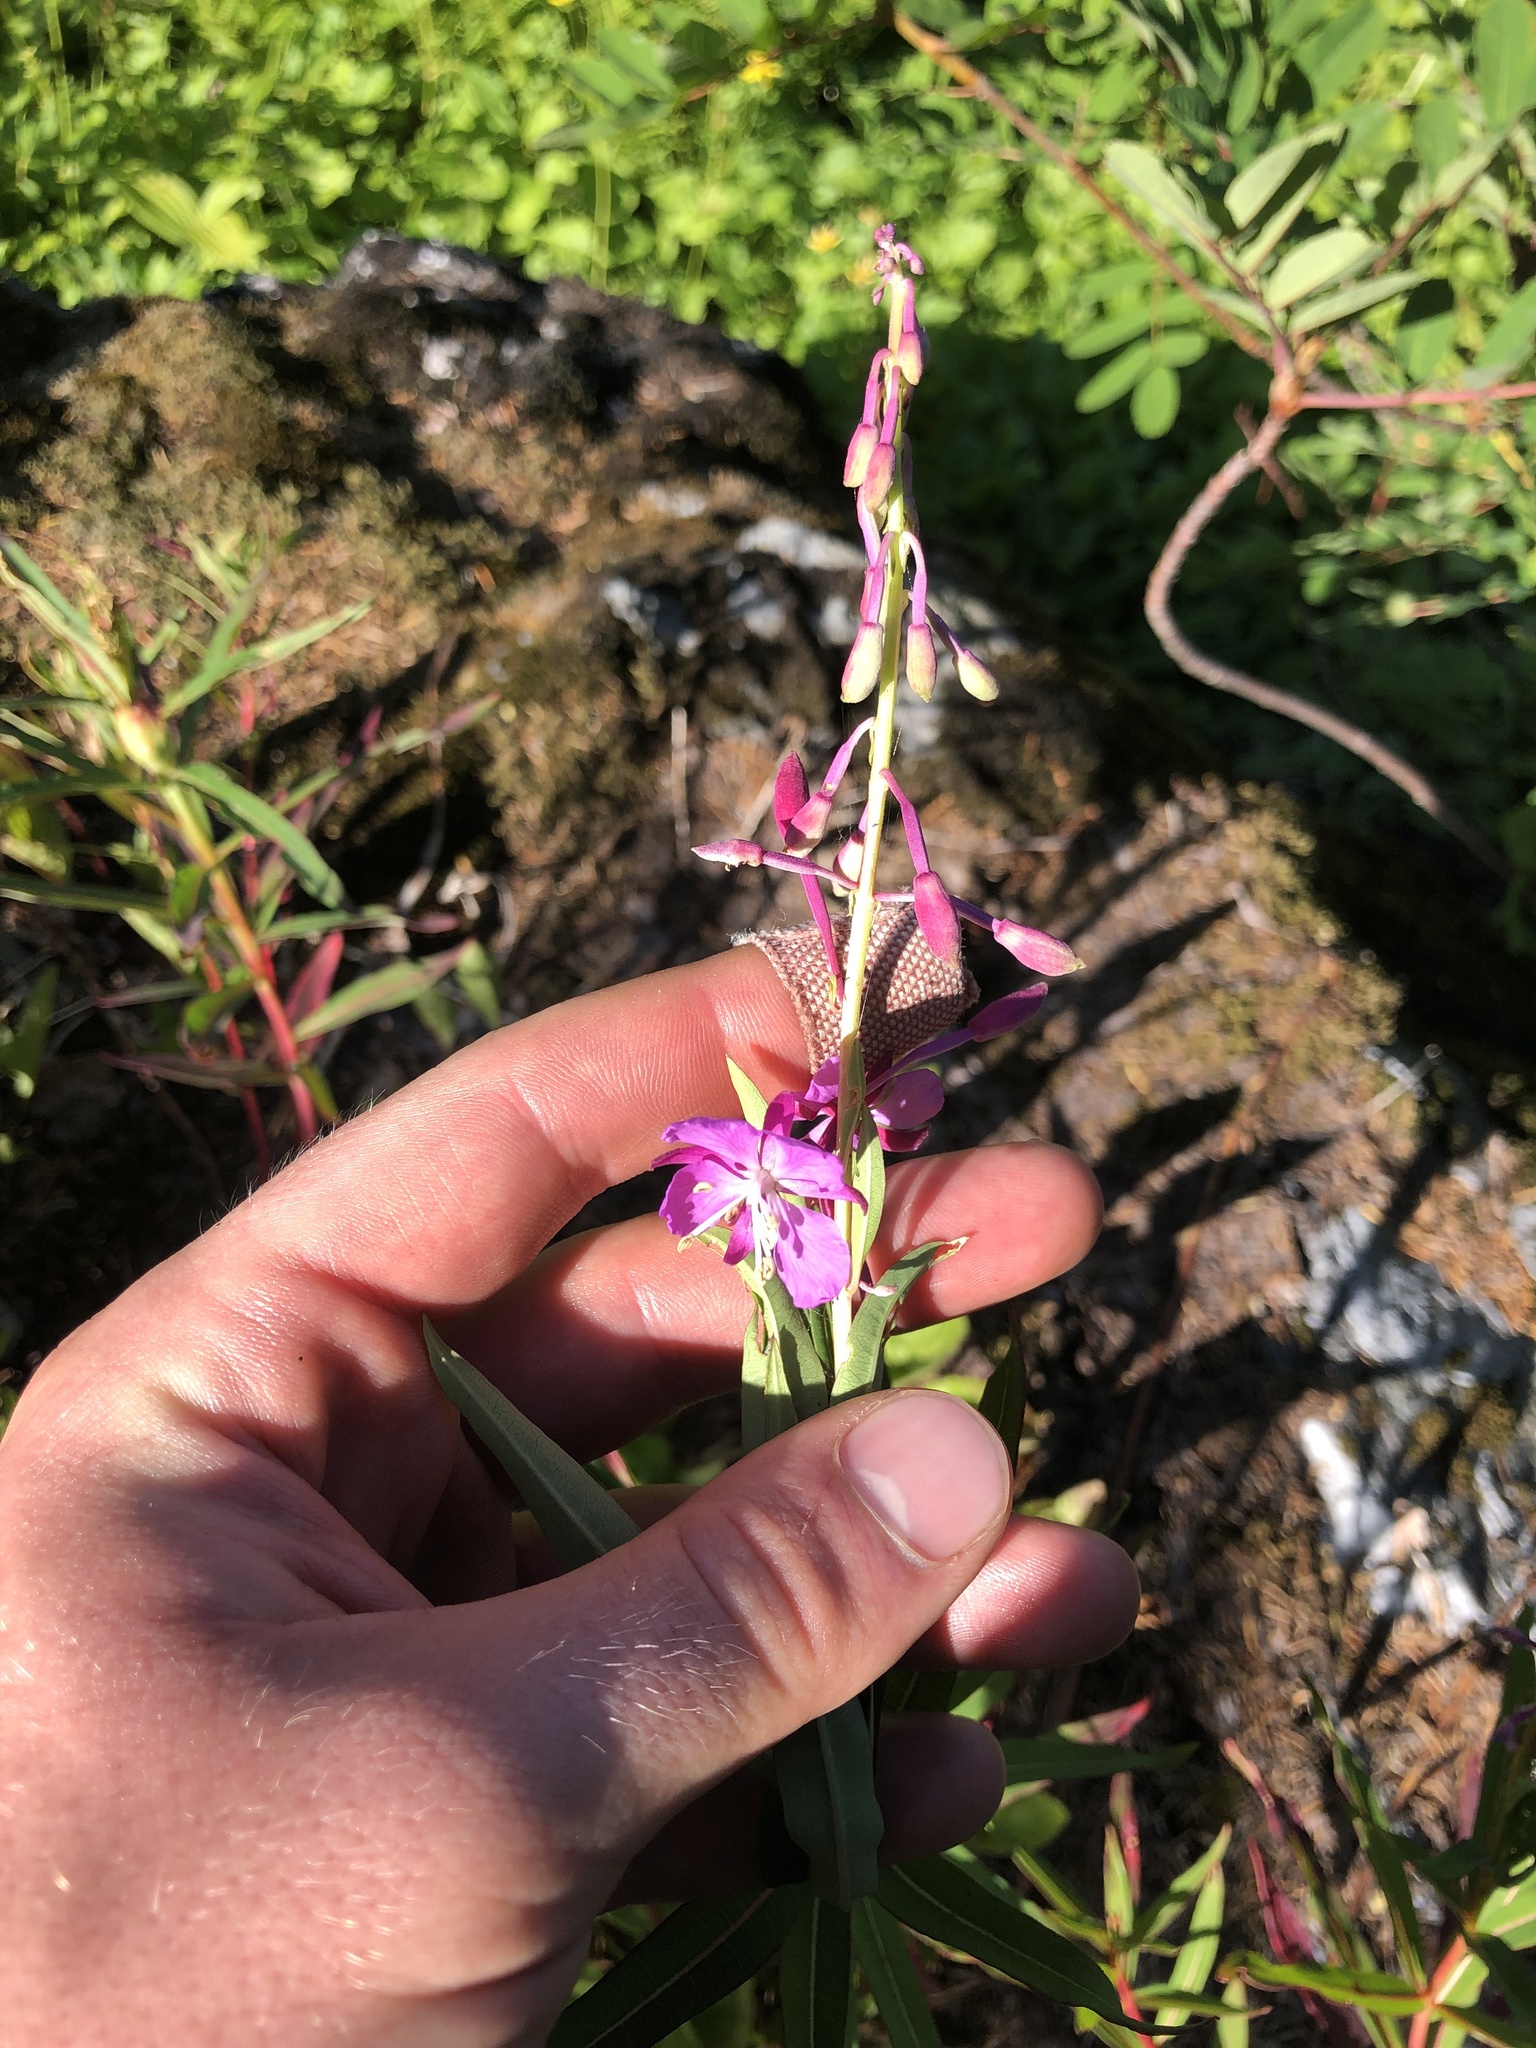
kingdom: Plantae
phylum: Tracheophyta
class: Magnoliopsida
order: Myrtales
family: Onagraceae
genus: Chamaenerion
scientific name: Chamaenerion angustifolium
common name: Fireweed
